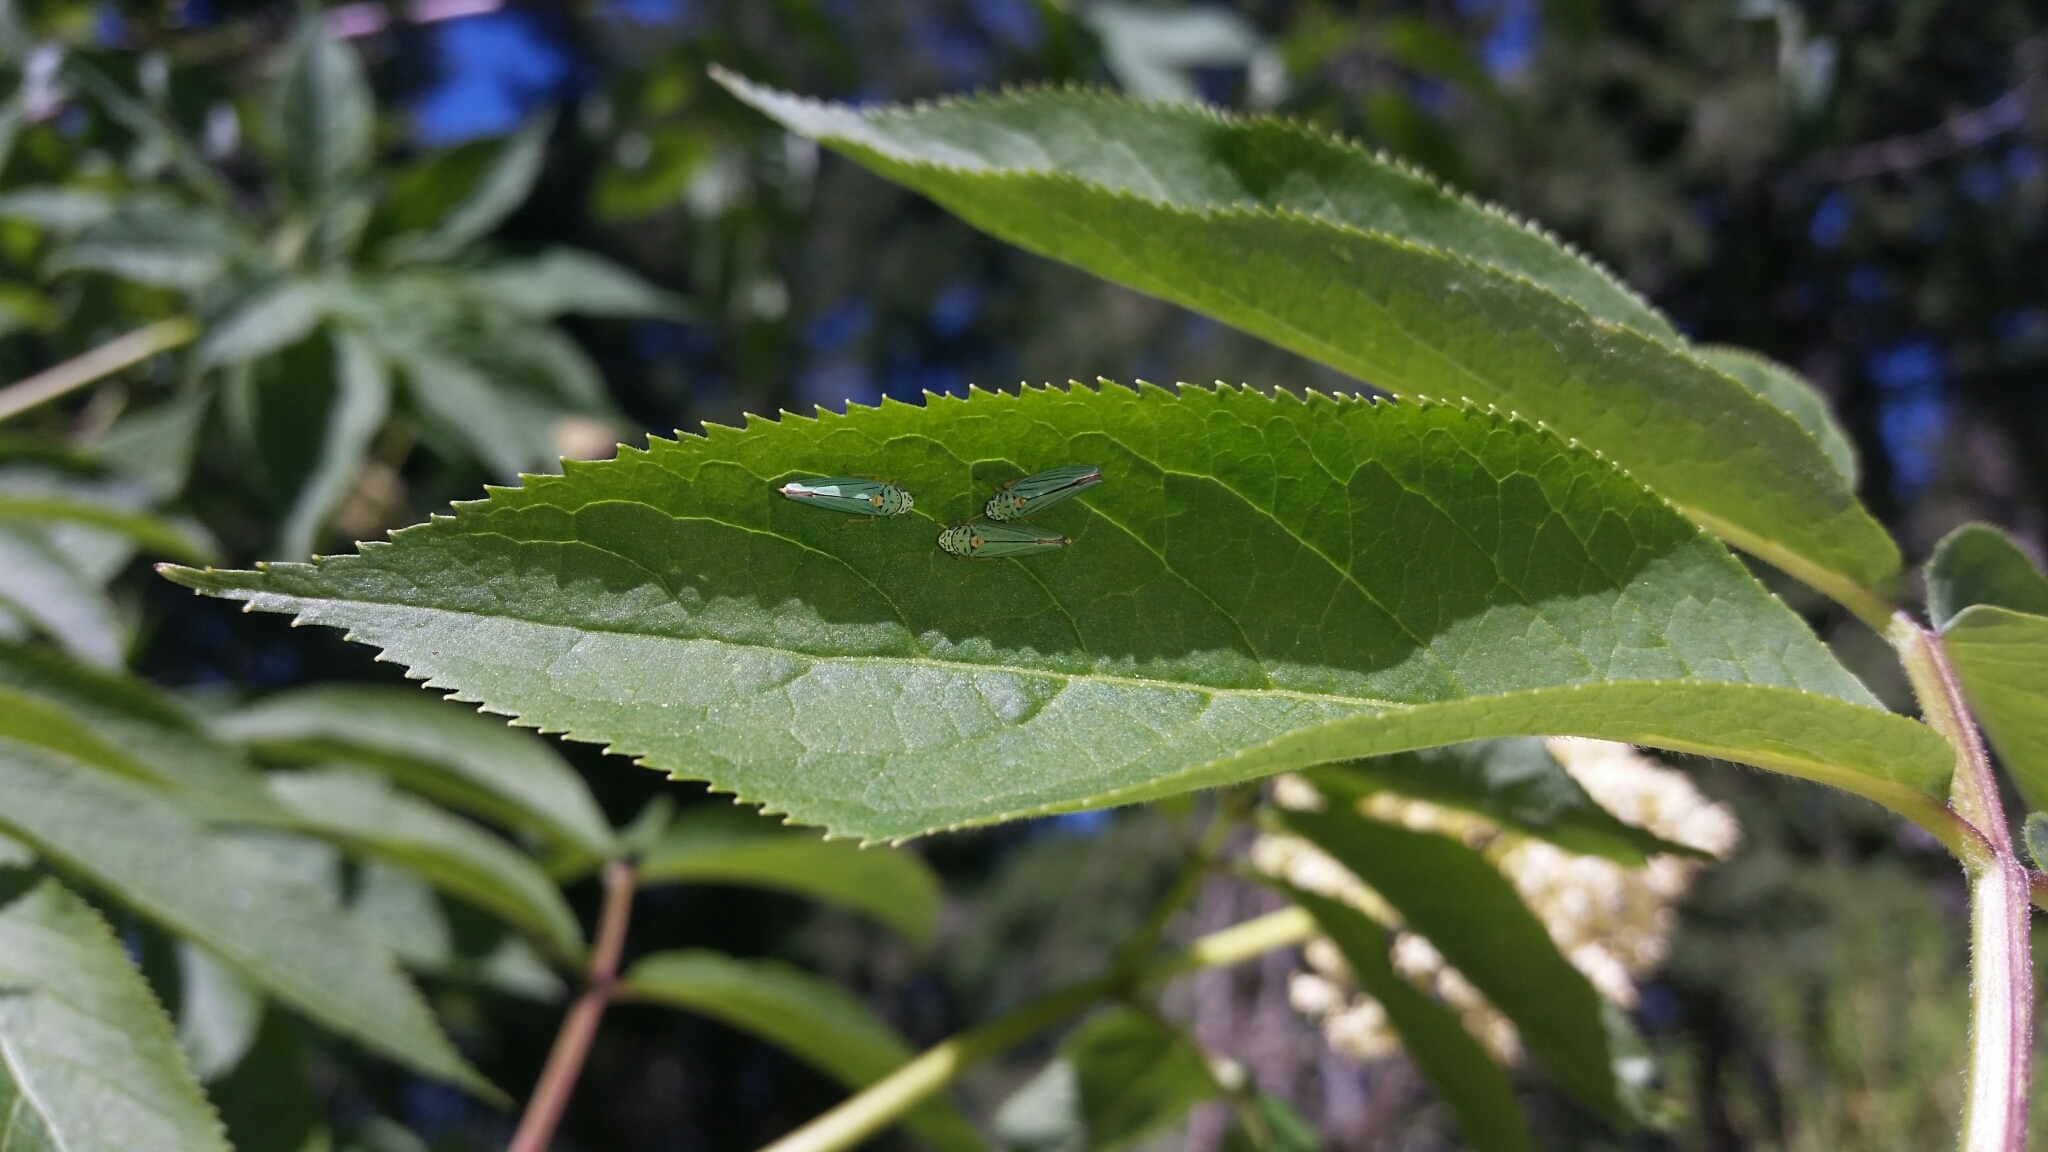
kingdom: Animalia
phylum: Arthropoda
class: Insecta
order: Hemiptera
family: Cicadellidae
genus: Graphocephala
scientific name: Graphocephala atropunctata
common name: Blue-green sharpshooter
